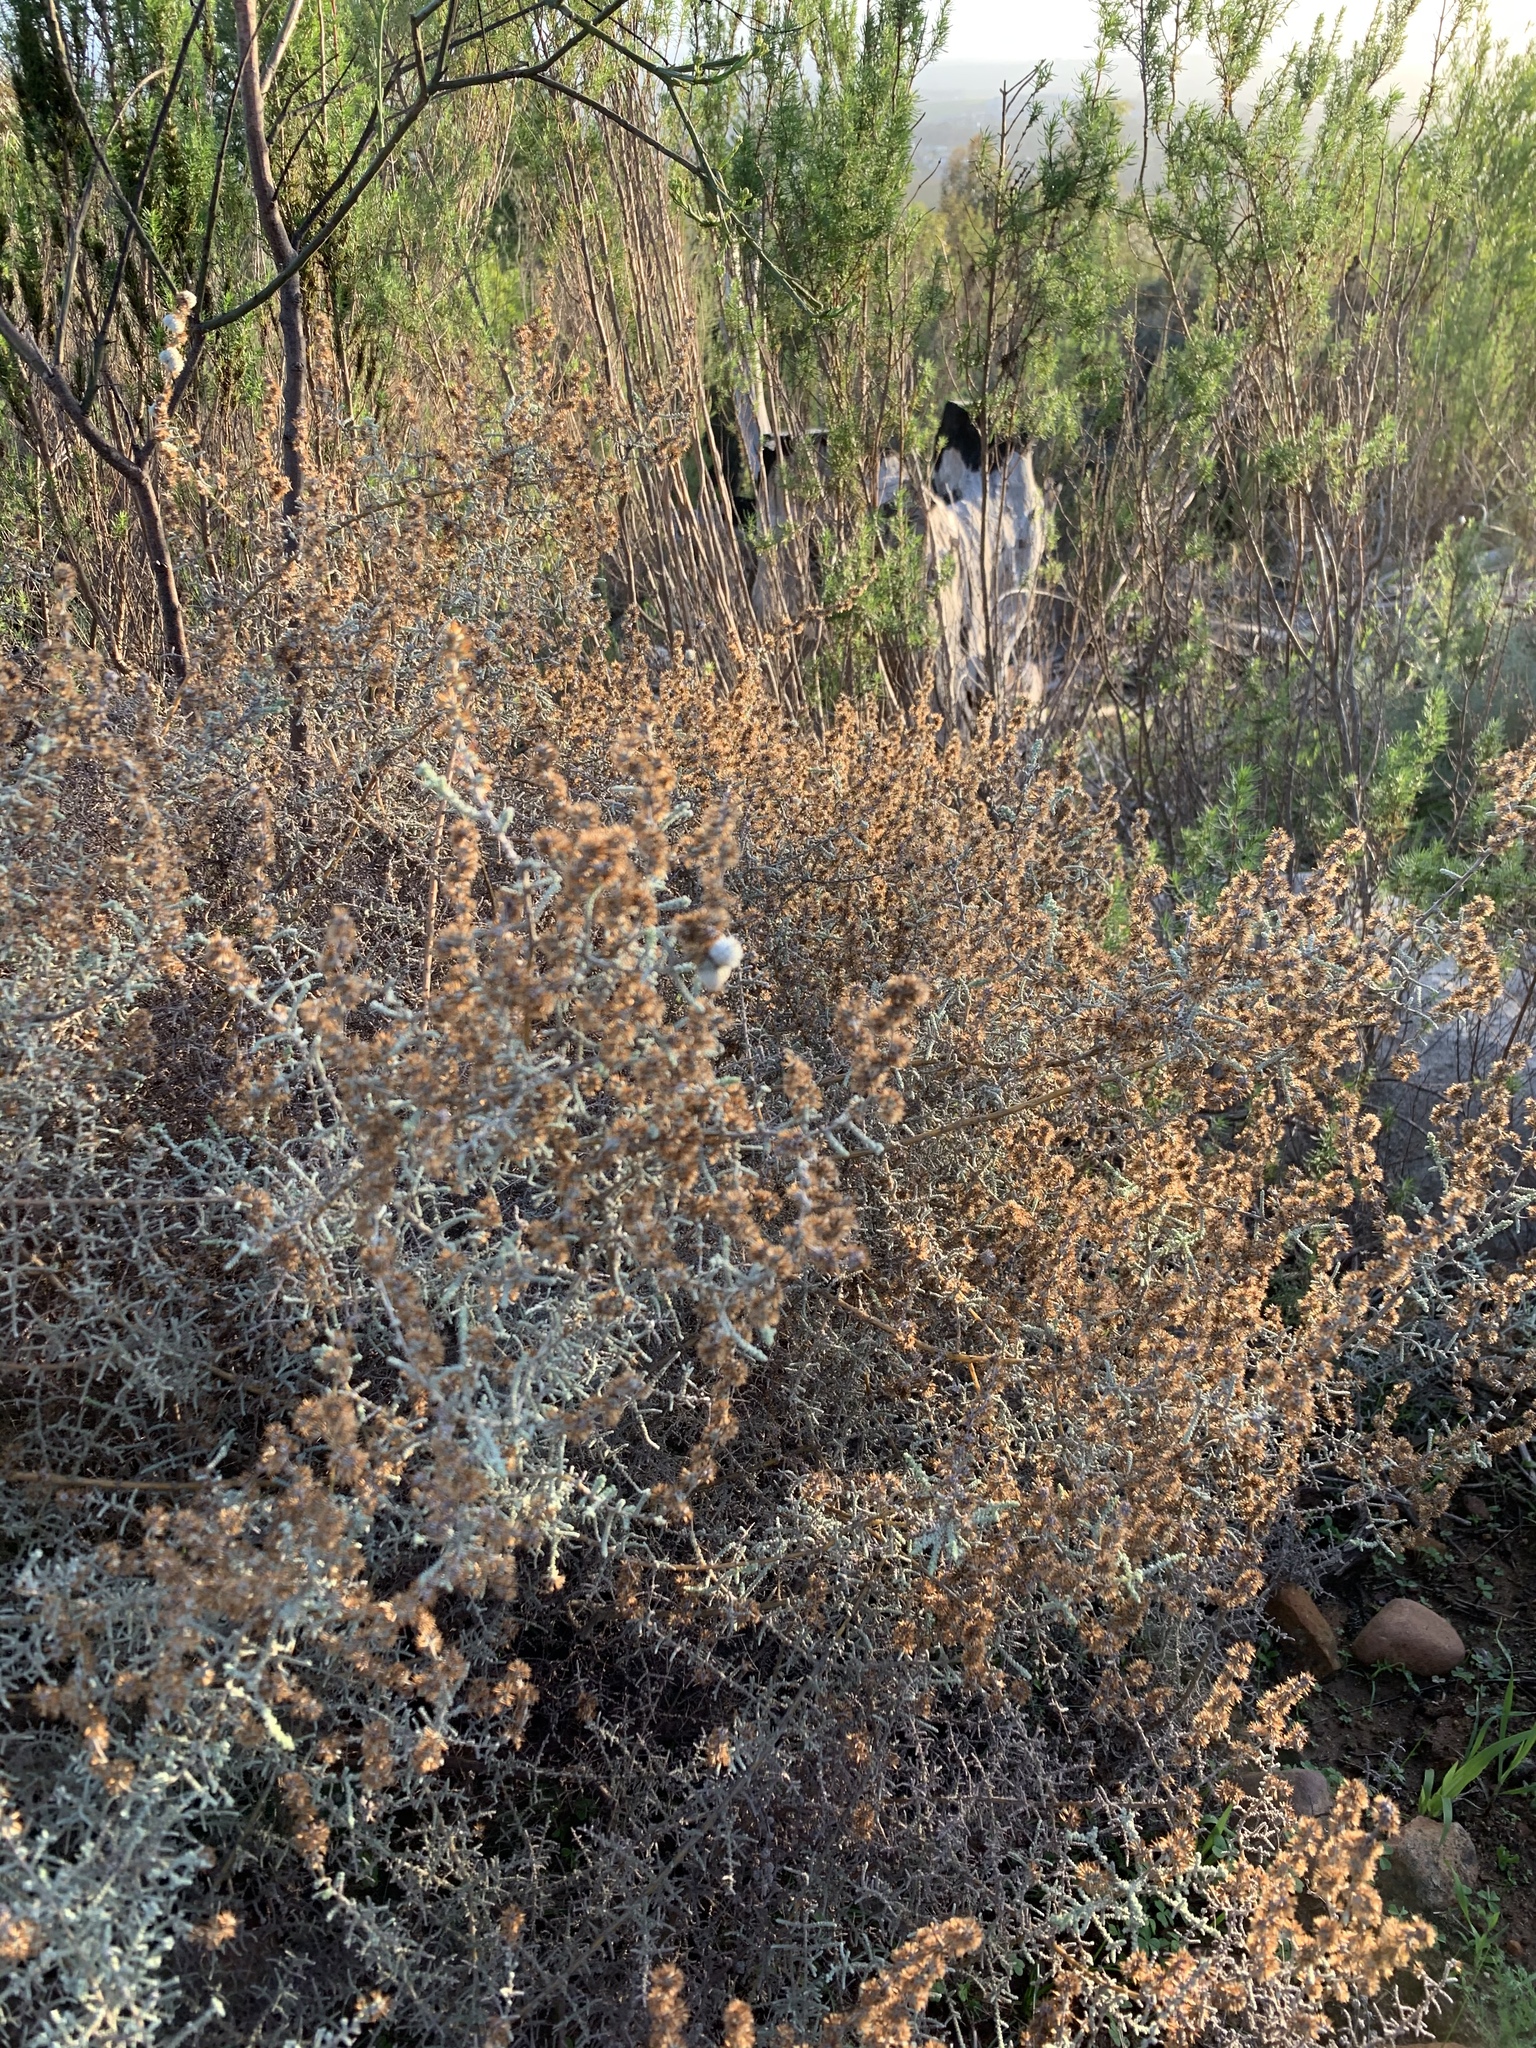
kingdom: Plantae
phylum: Tracheophyta
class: Magnoliopsida
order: Asterales
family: Asteraceae
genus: Seriphium
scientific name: Seriphium plumosum
